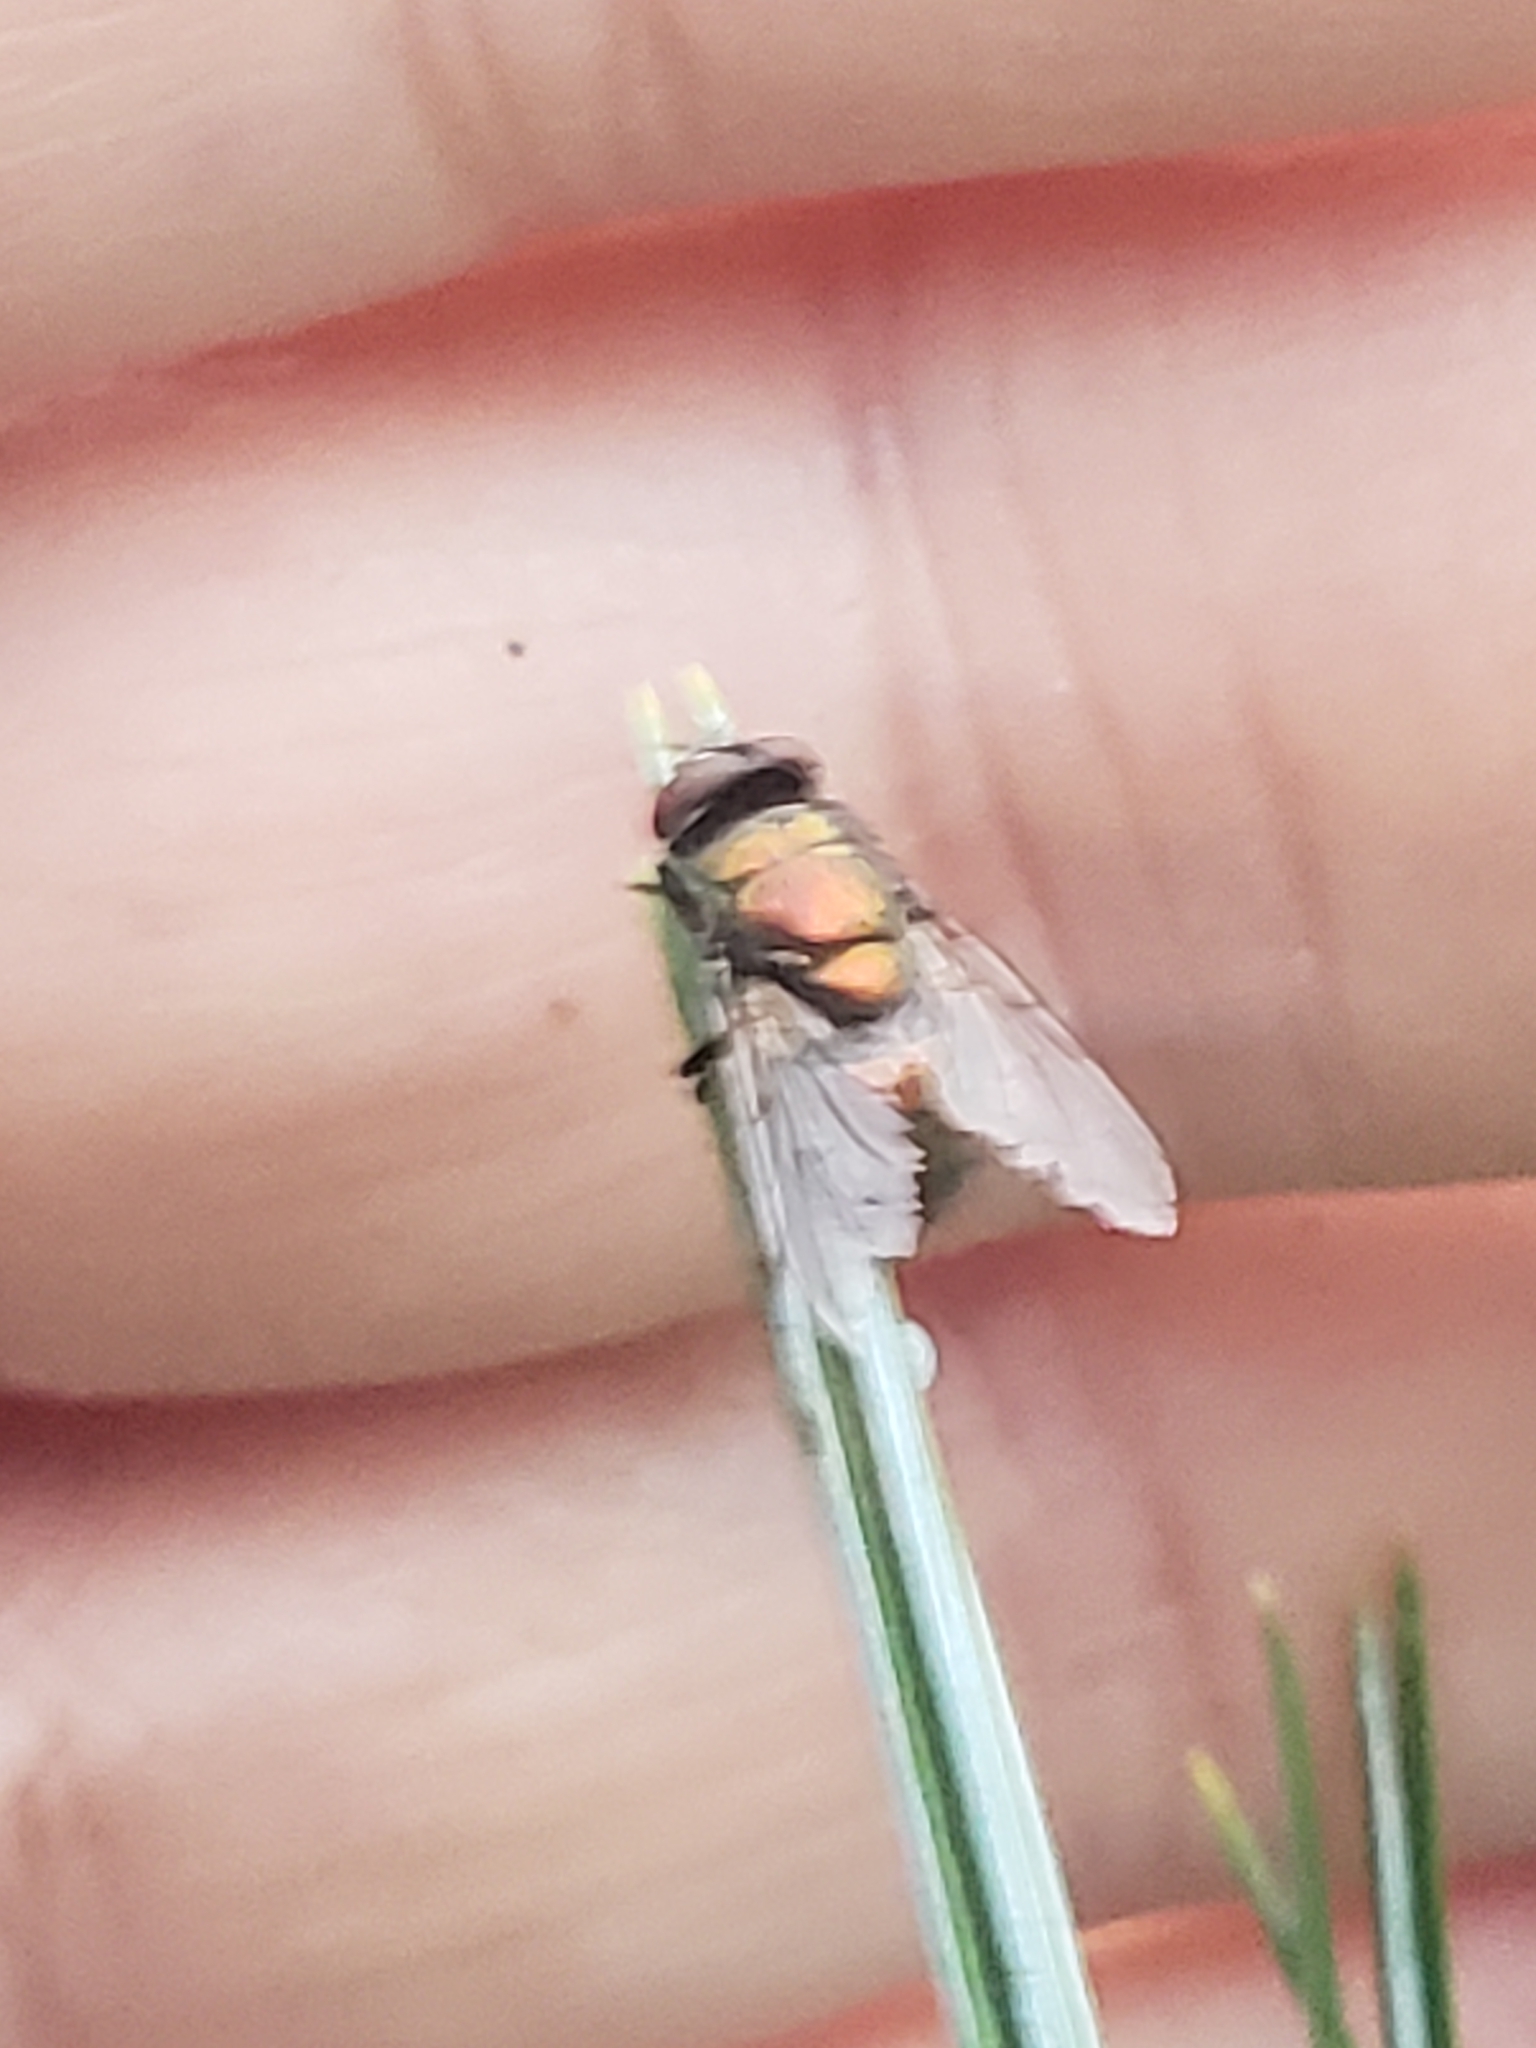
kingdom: Animalia
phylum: Arthropoda
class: Insecta
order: Diptera
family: Calliphoridae
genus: Lucilia
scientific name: Lucilia
